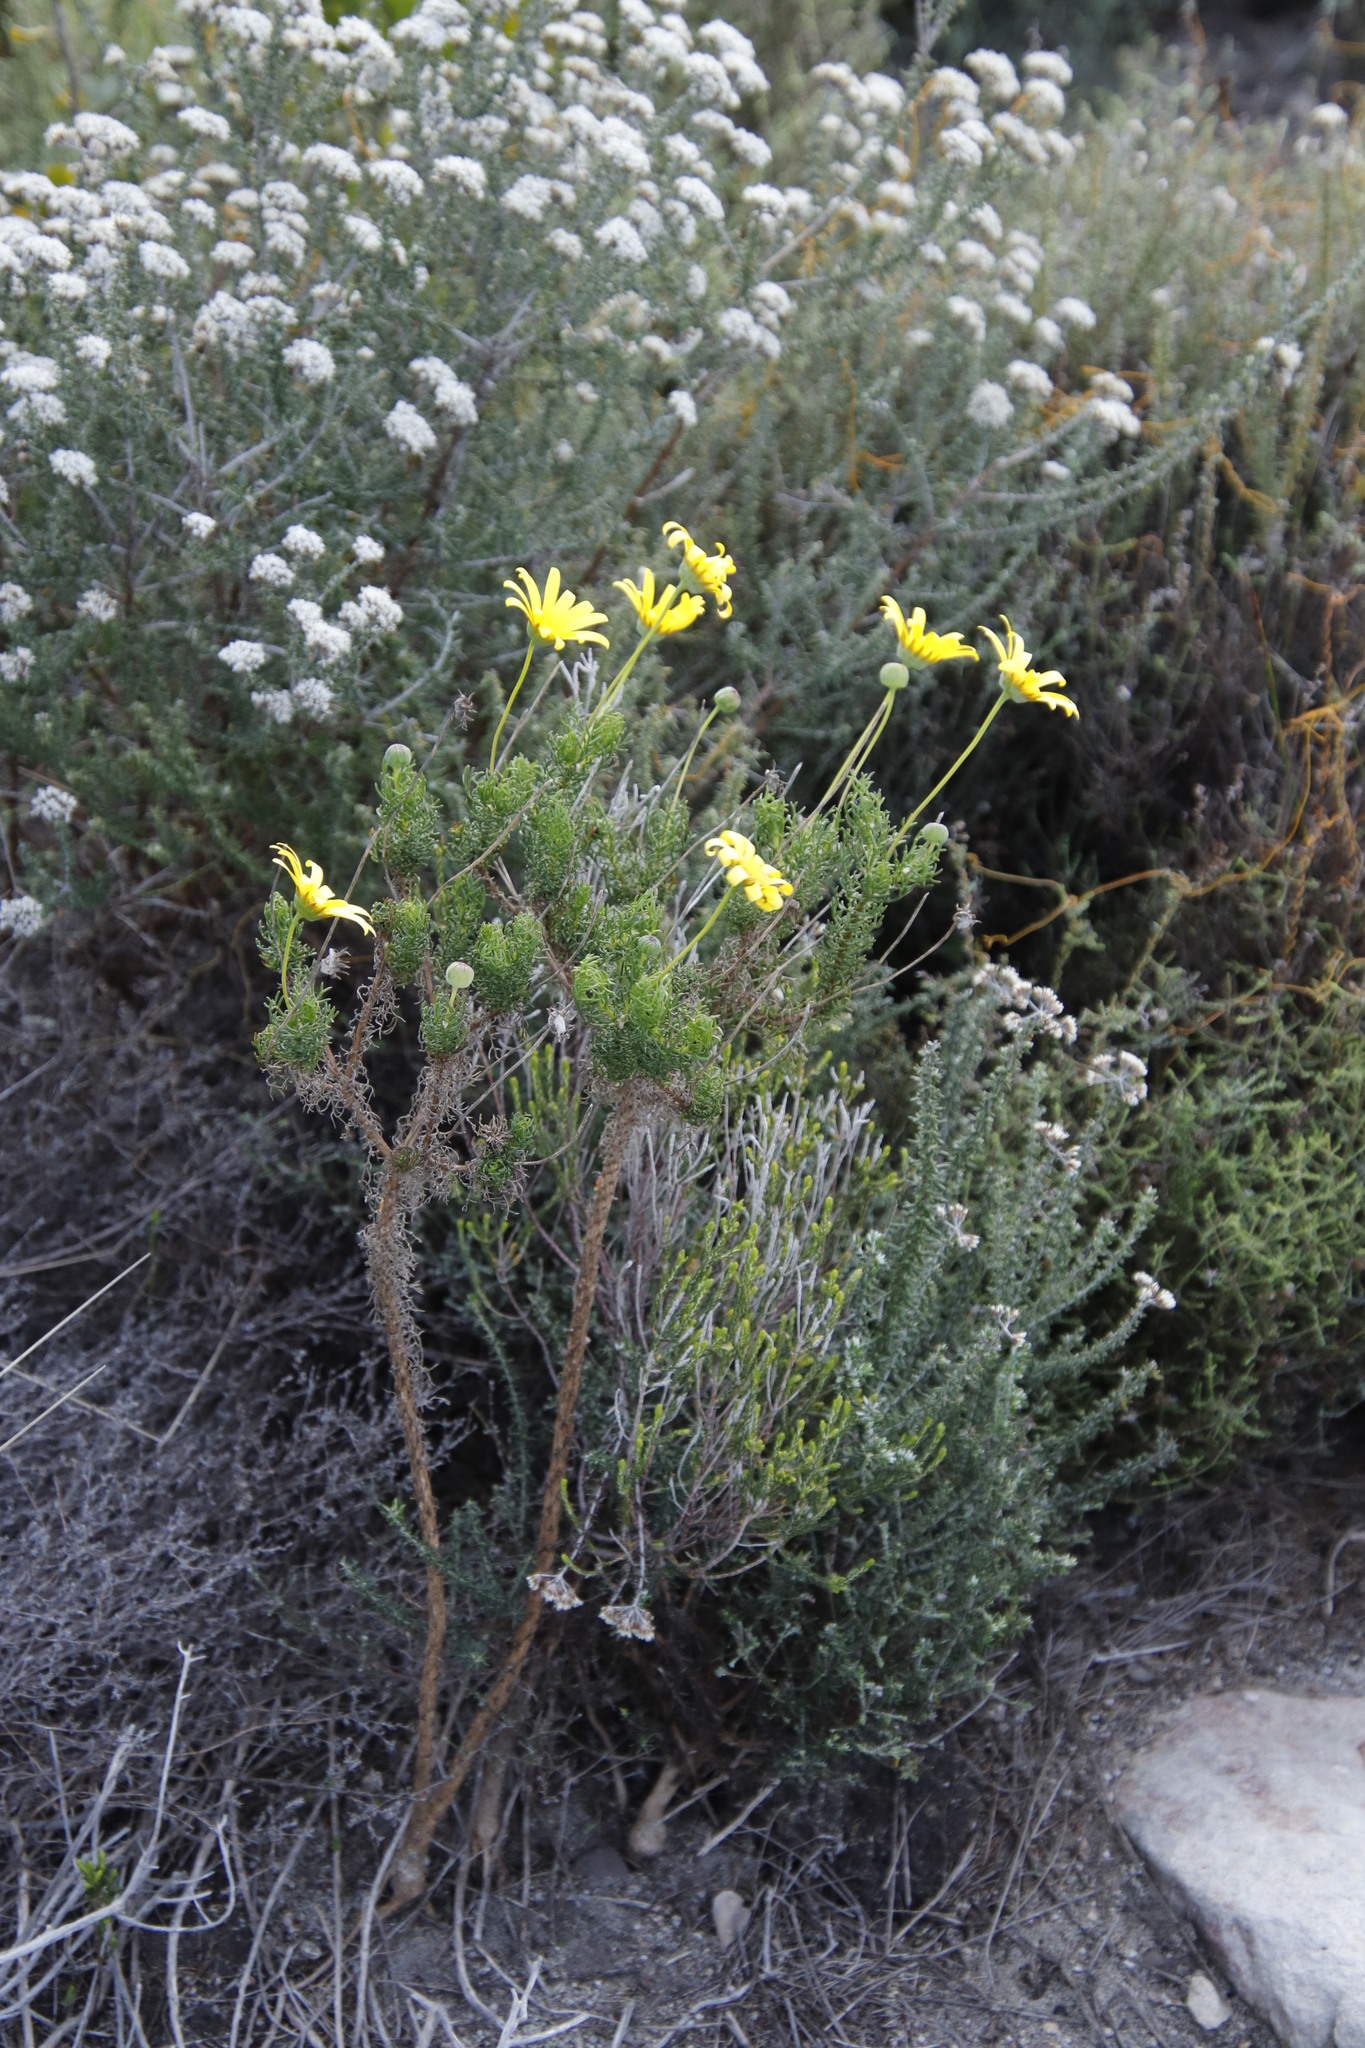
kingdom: Plantae
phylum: Tracheophyta
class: Magnoliopsida
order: Asterales
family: Asteraceae
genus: Euryops
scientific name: Euryops abrotanifolius
